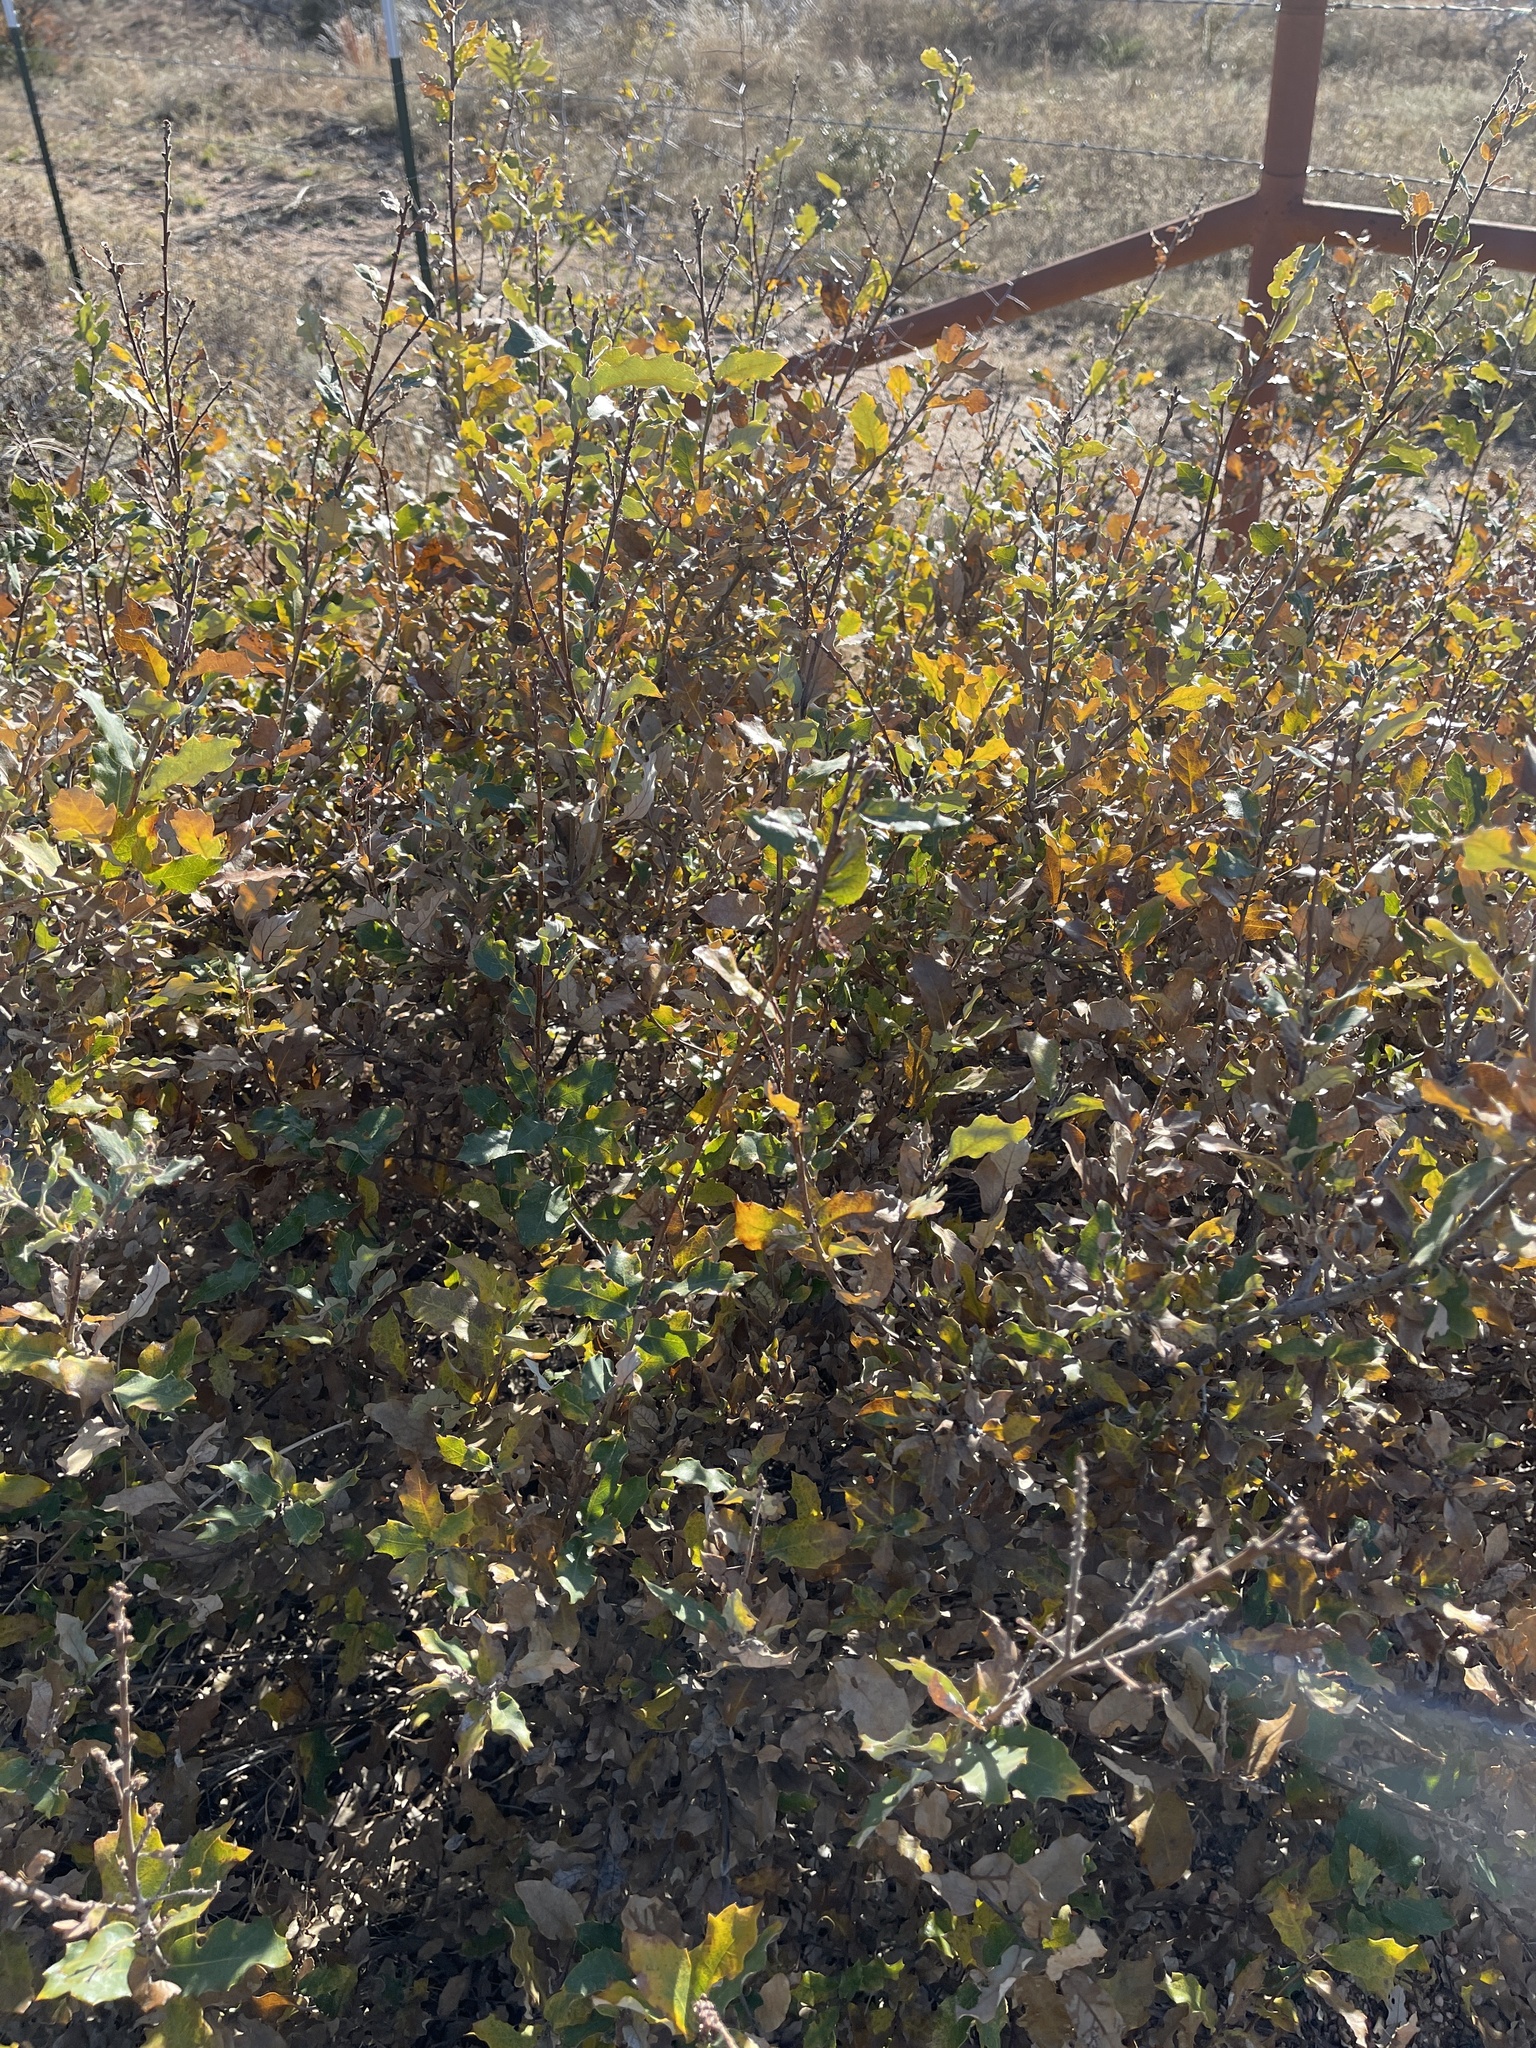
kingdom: Plantae
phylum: Tracheophyta
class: Magnoliopsida
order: Fagales
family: Fagaceae
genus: Quercus
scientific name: Quercus havardii
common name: Shinnery oak
